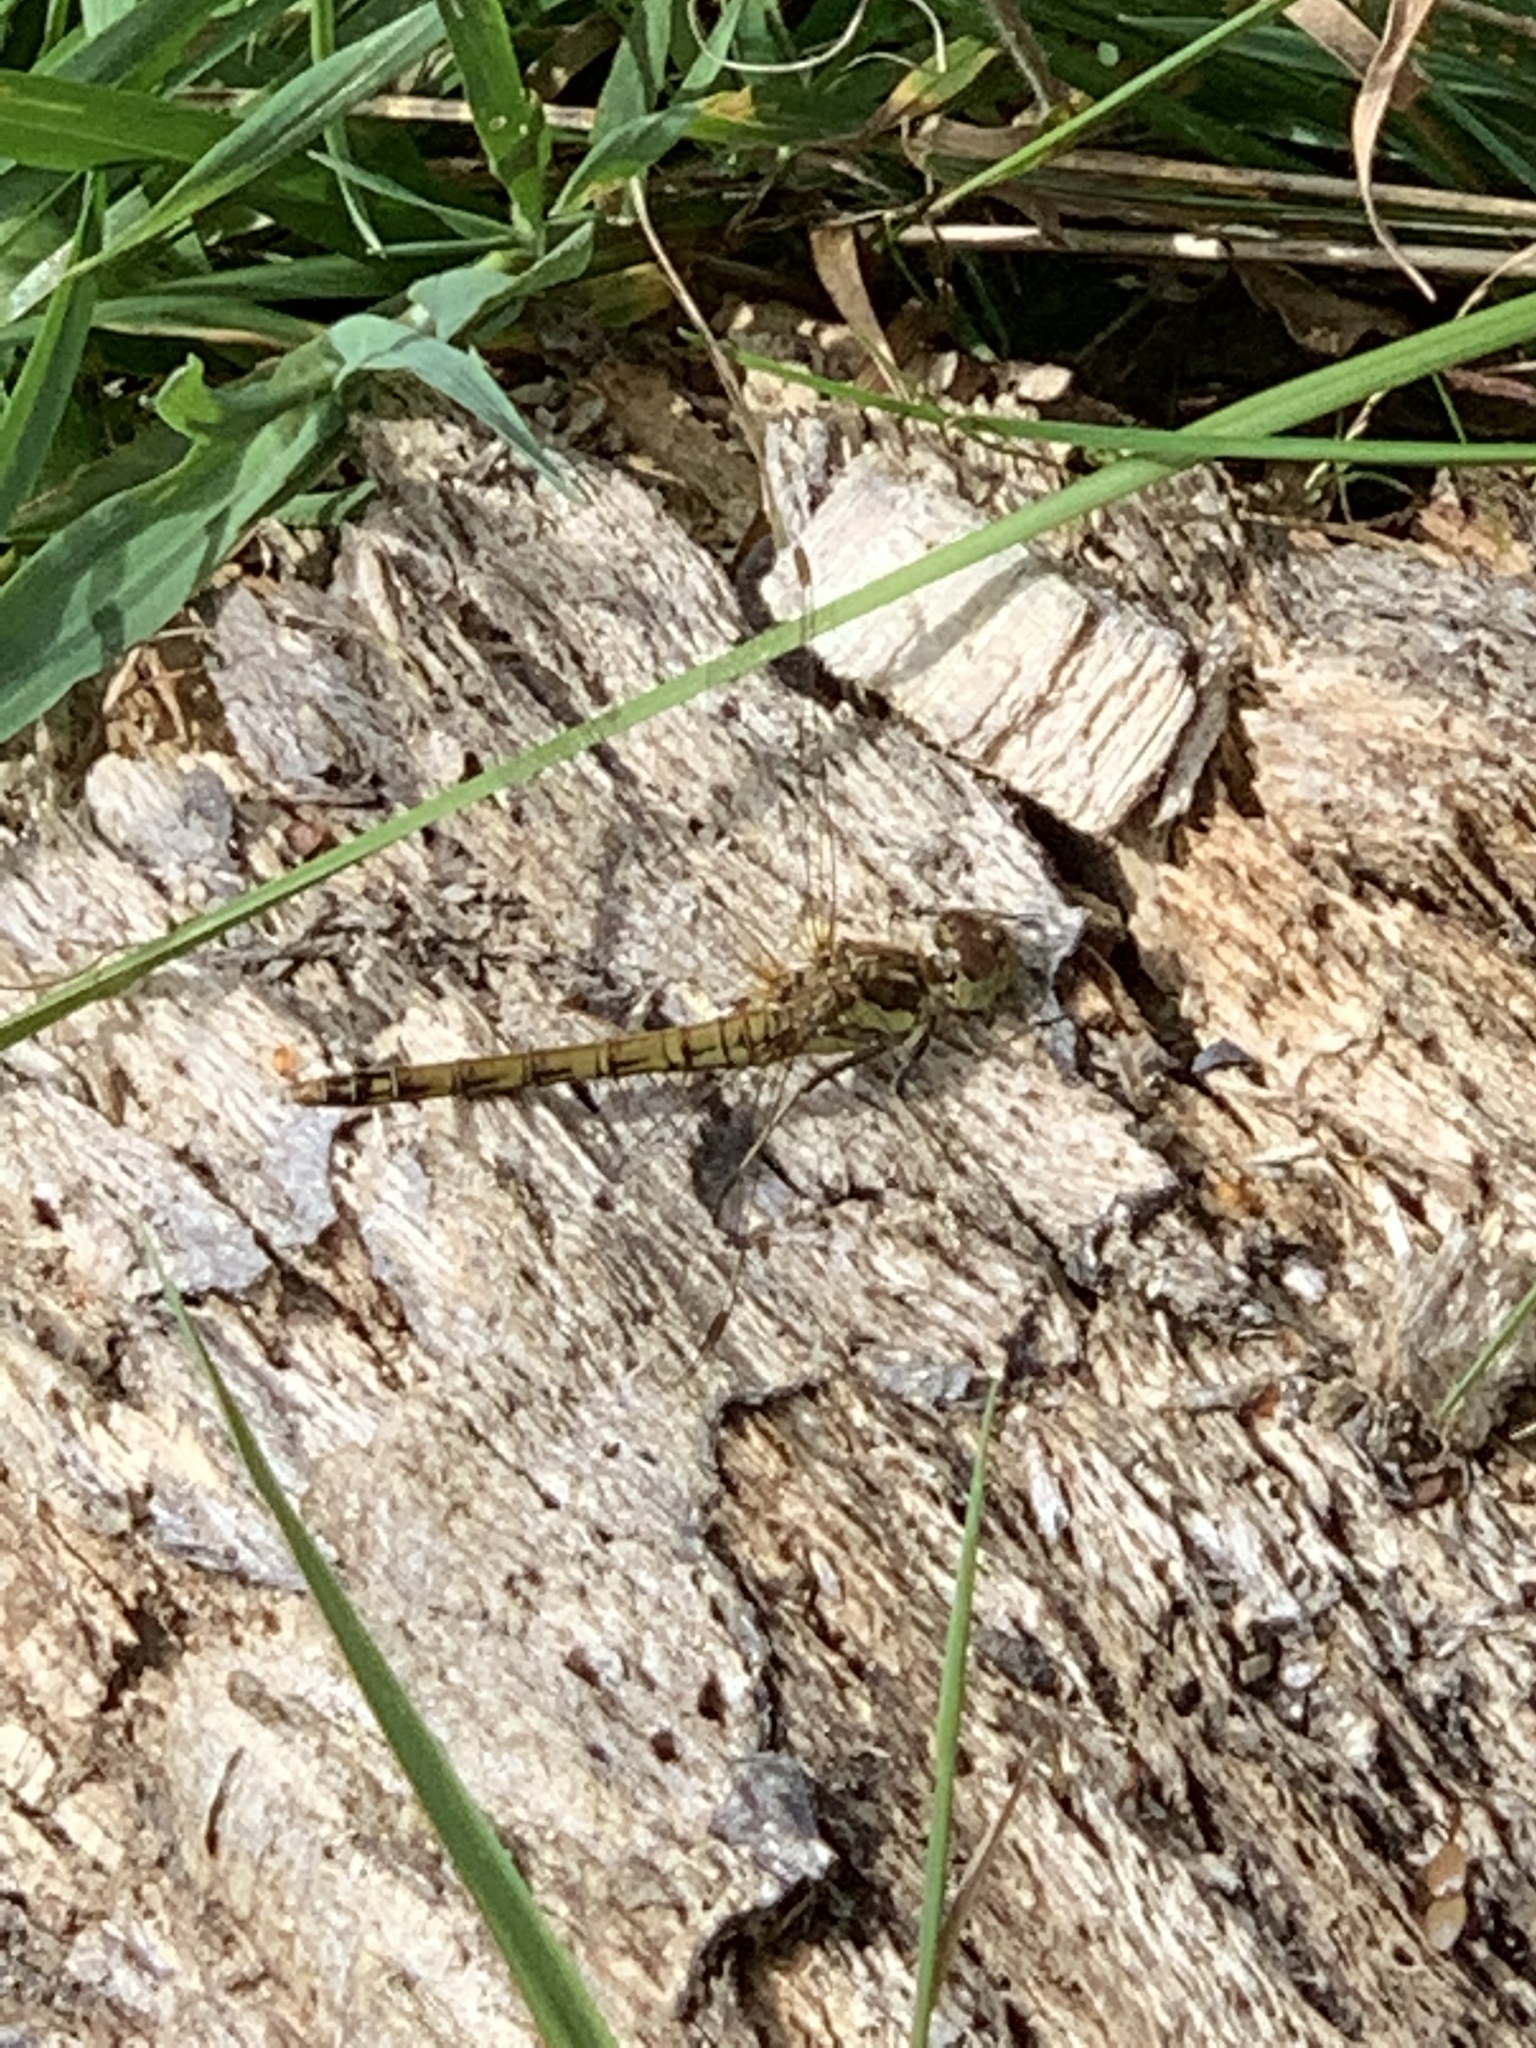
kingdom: Animalia
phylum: Arthropoda
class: Insecta
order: Odonata
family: Libellulidae
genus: Sympetrum
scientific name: Sympetrum striolatum
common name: Common darter
